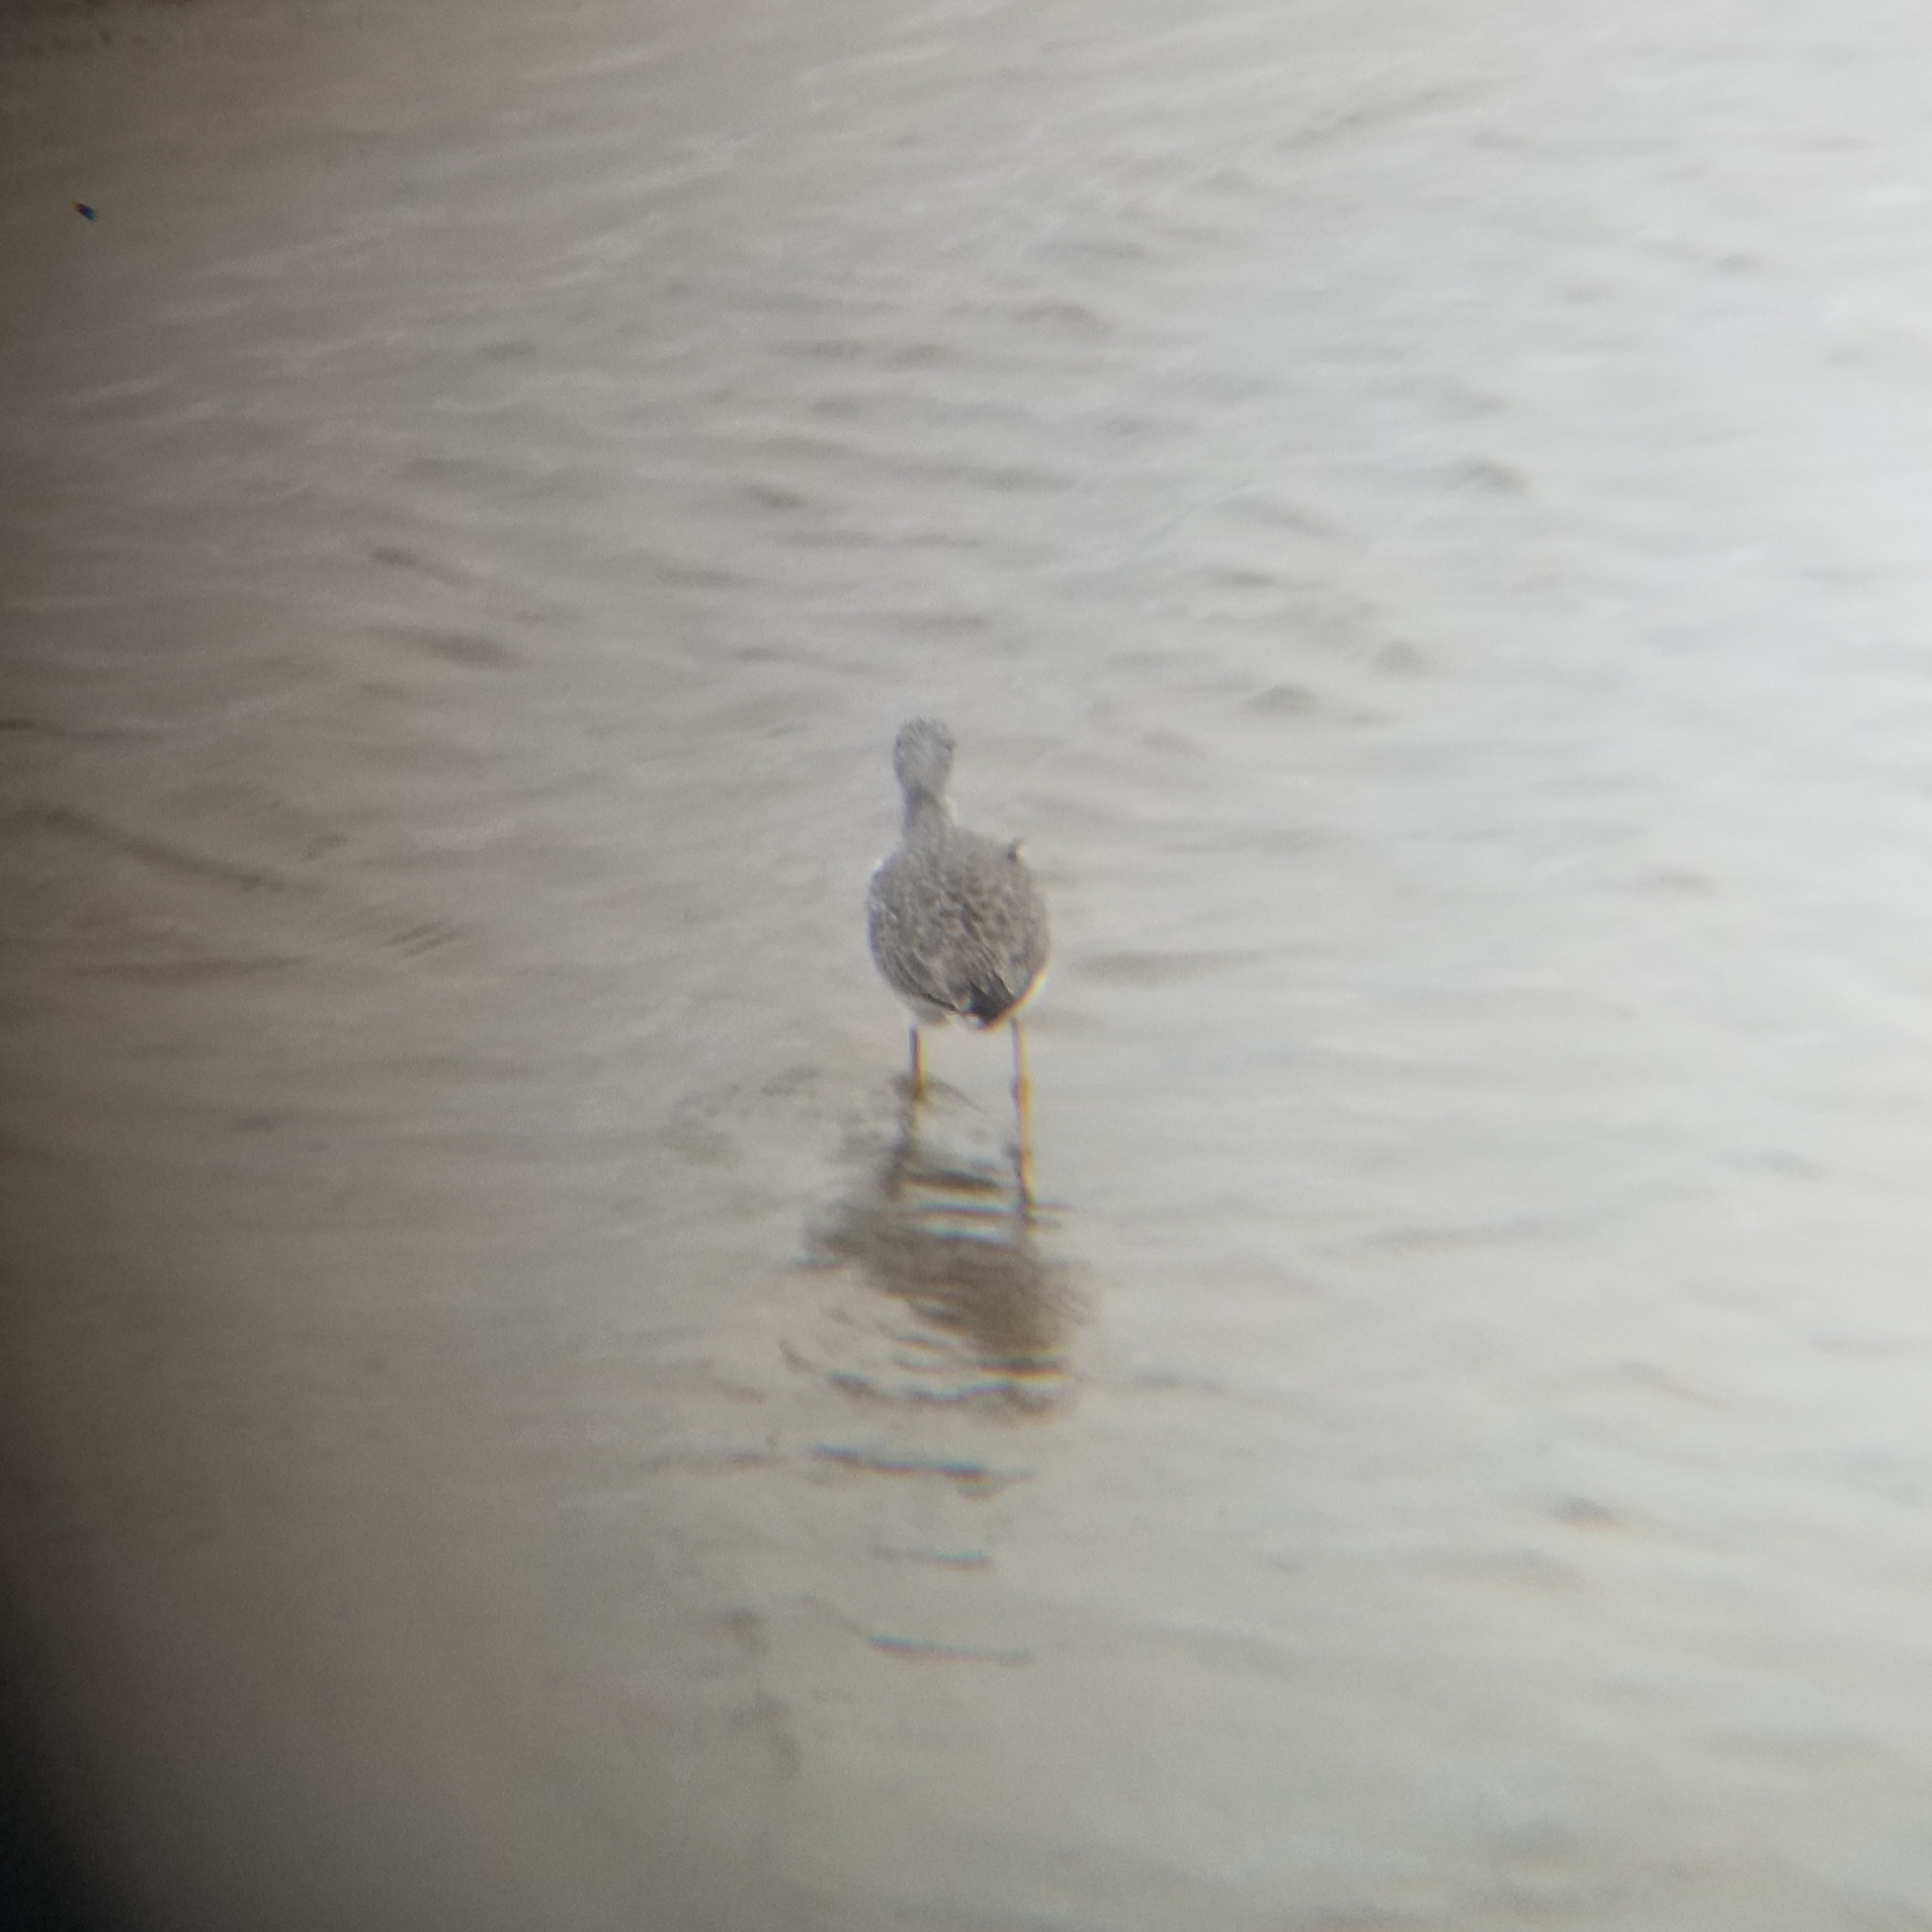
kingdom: Animalia
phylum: Chordata
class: Aves
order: Charadriiformes
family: Scolopacidae
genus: Tringa
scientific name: Tringa melanoleuca
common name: Greater yellowlegs
